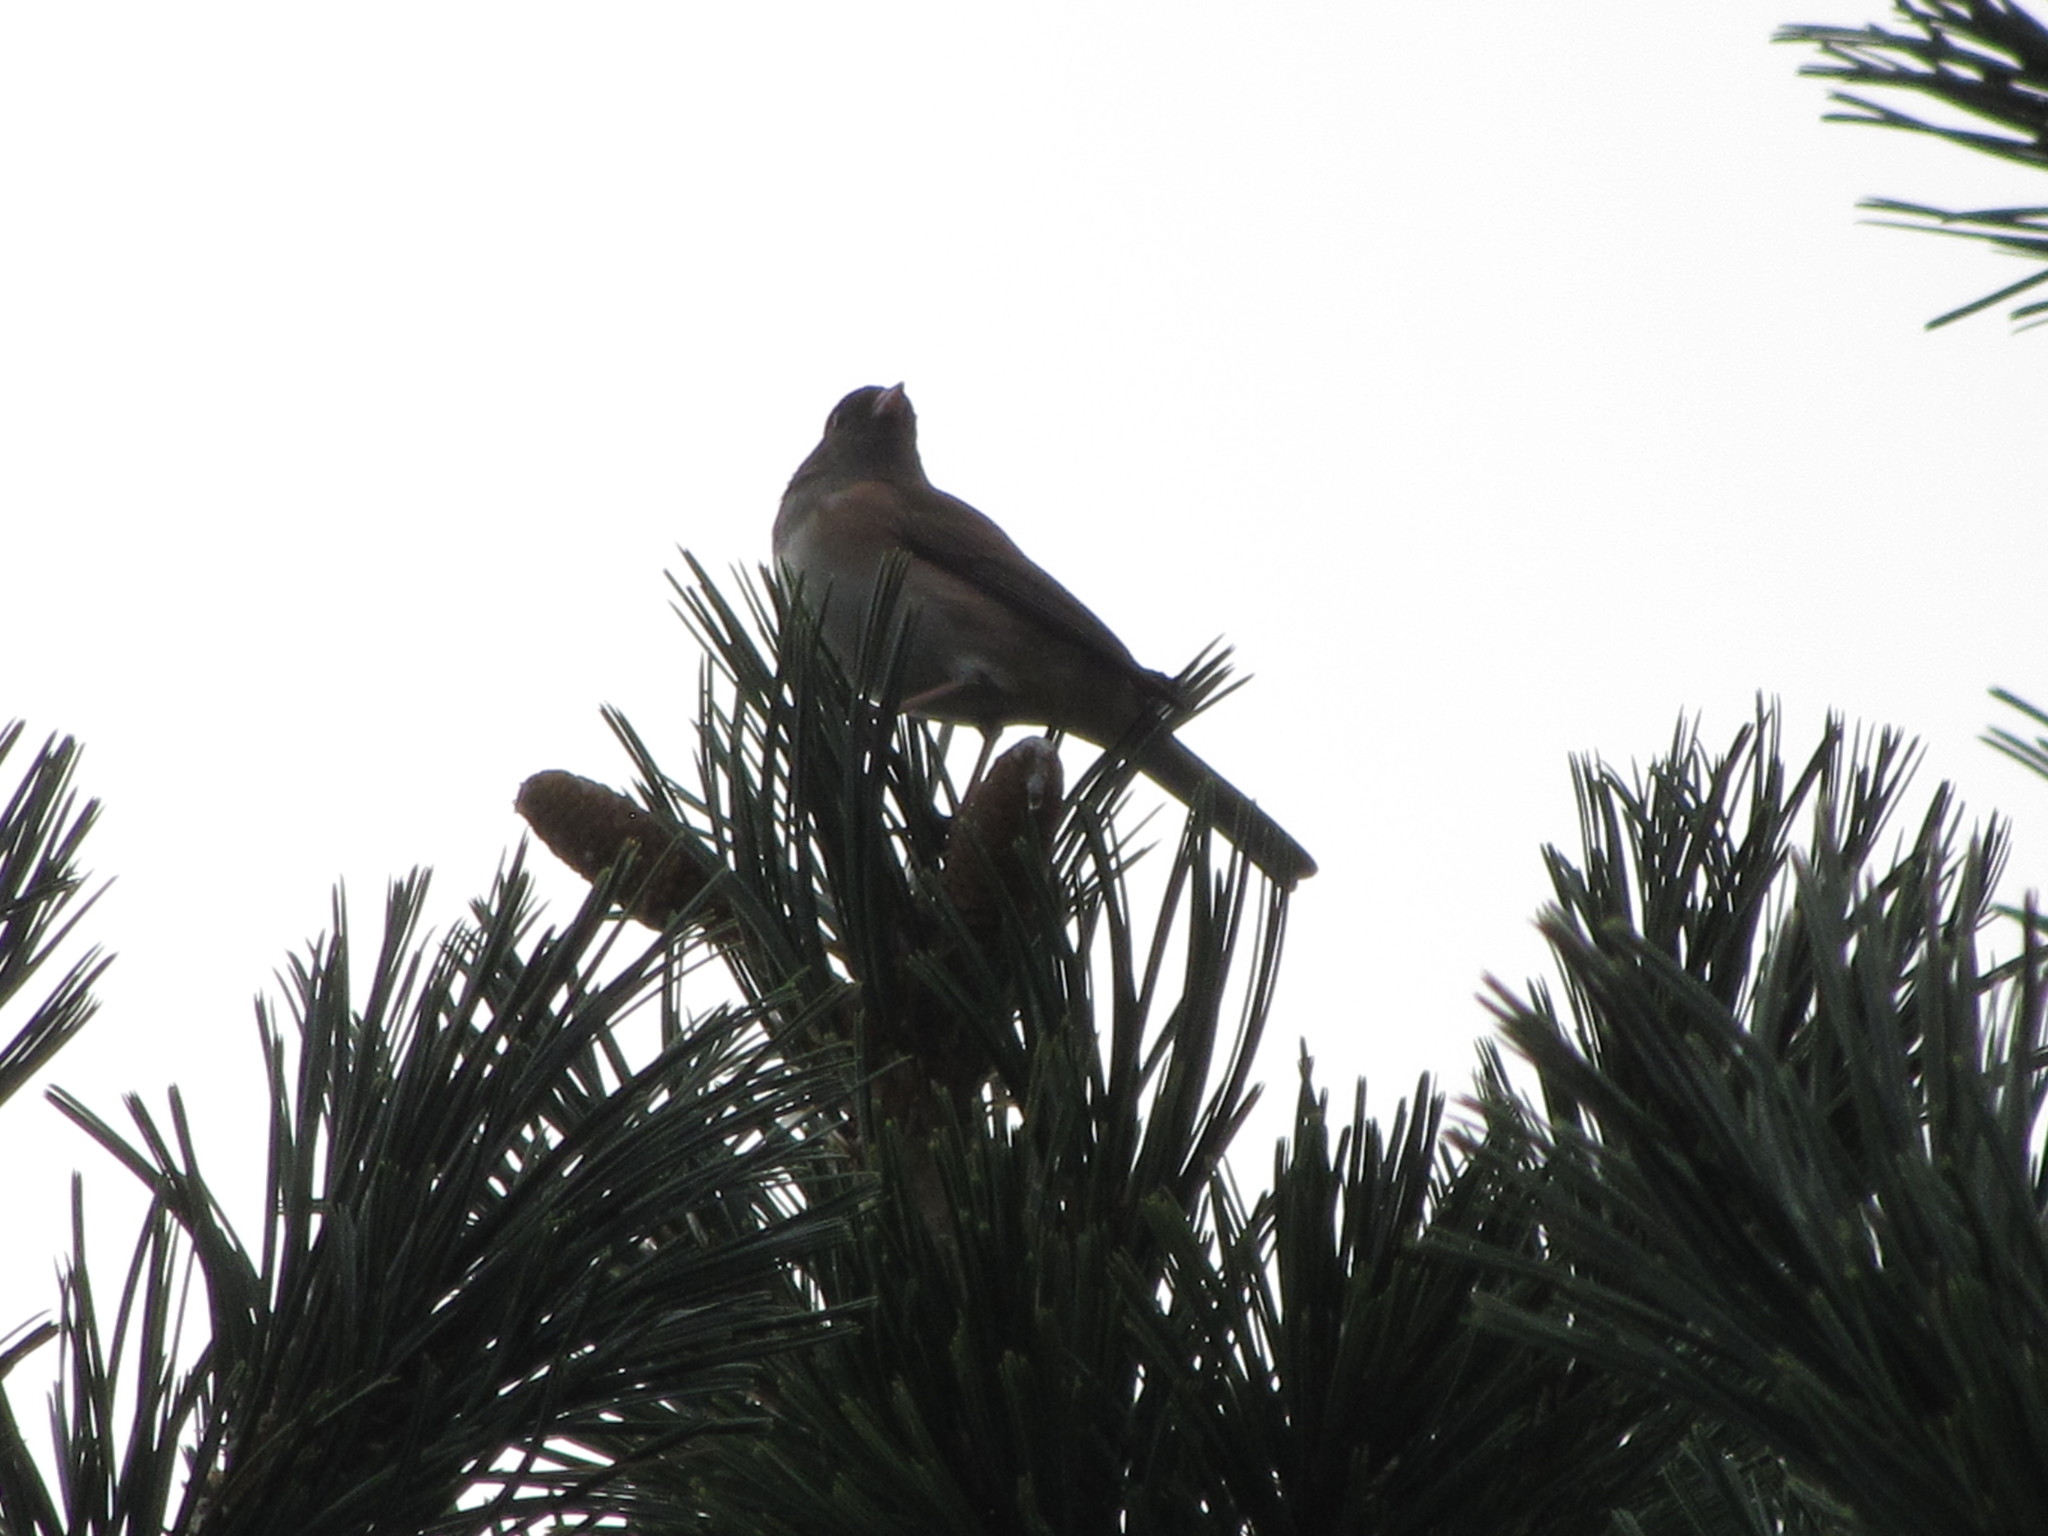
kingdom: Animalia
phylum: Chordata
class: Aves
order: Passeriformes
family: Passerellidae
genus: Junco
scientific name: Junco hyemalis
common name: Dark-eyed junco
